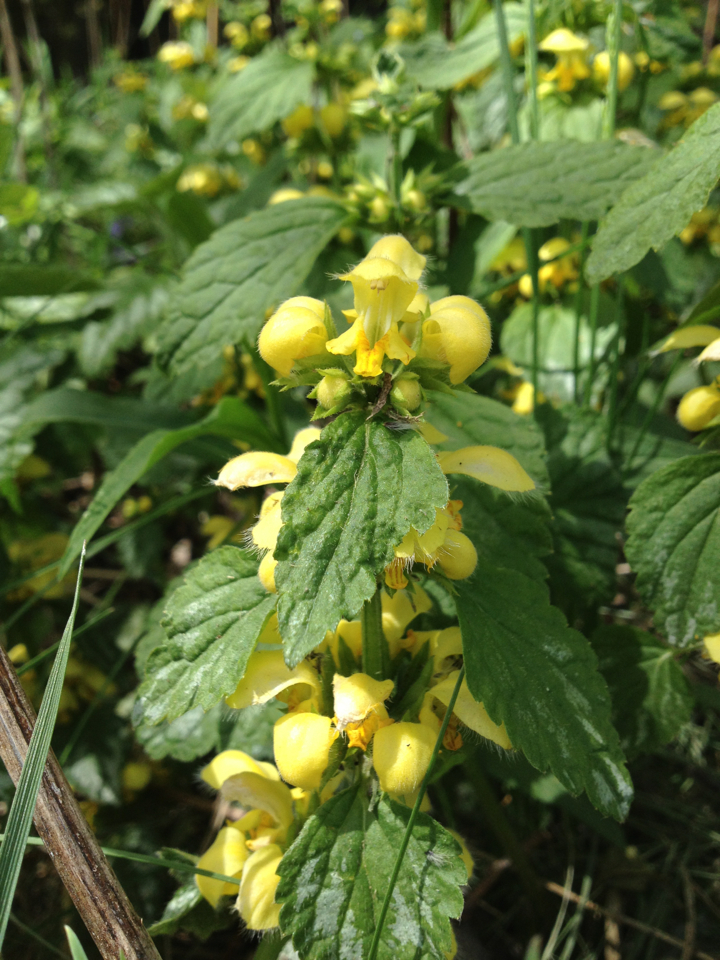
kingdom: Plantae
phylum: Tracheophyta
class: Magnoliopsida
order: Lamiales
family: Lamiaceae
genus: Lamium
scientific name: Lamium galeobdolon
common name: Yellow archangel
